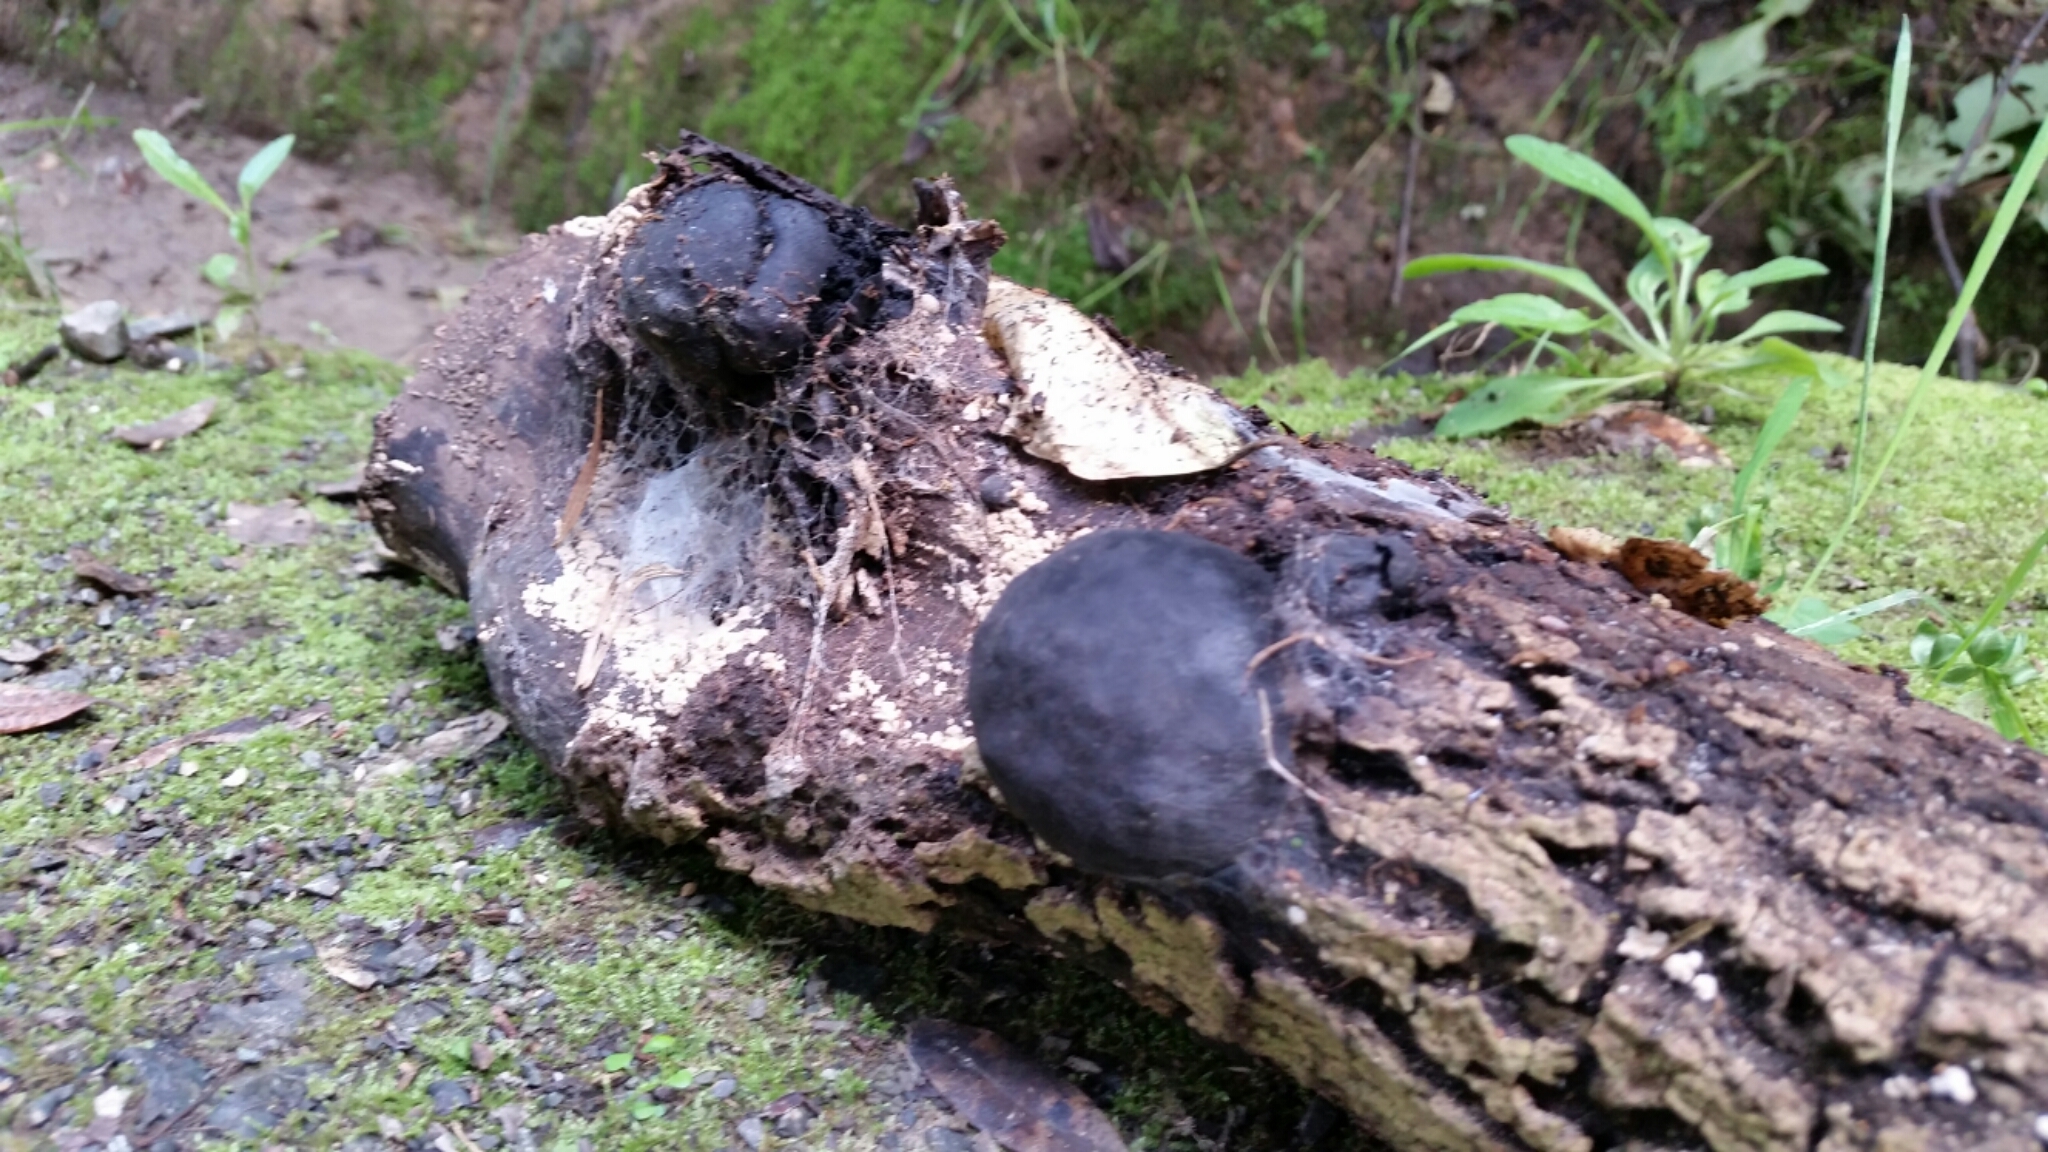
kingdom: Fungi
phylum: Ascomycota
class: Sordariomycetes
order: Xylariales
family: Hypoxylaceae
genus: Daldinia
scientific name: Daldinia
